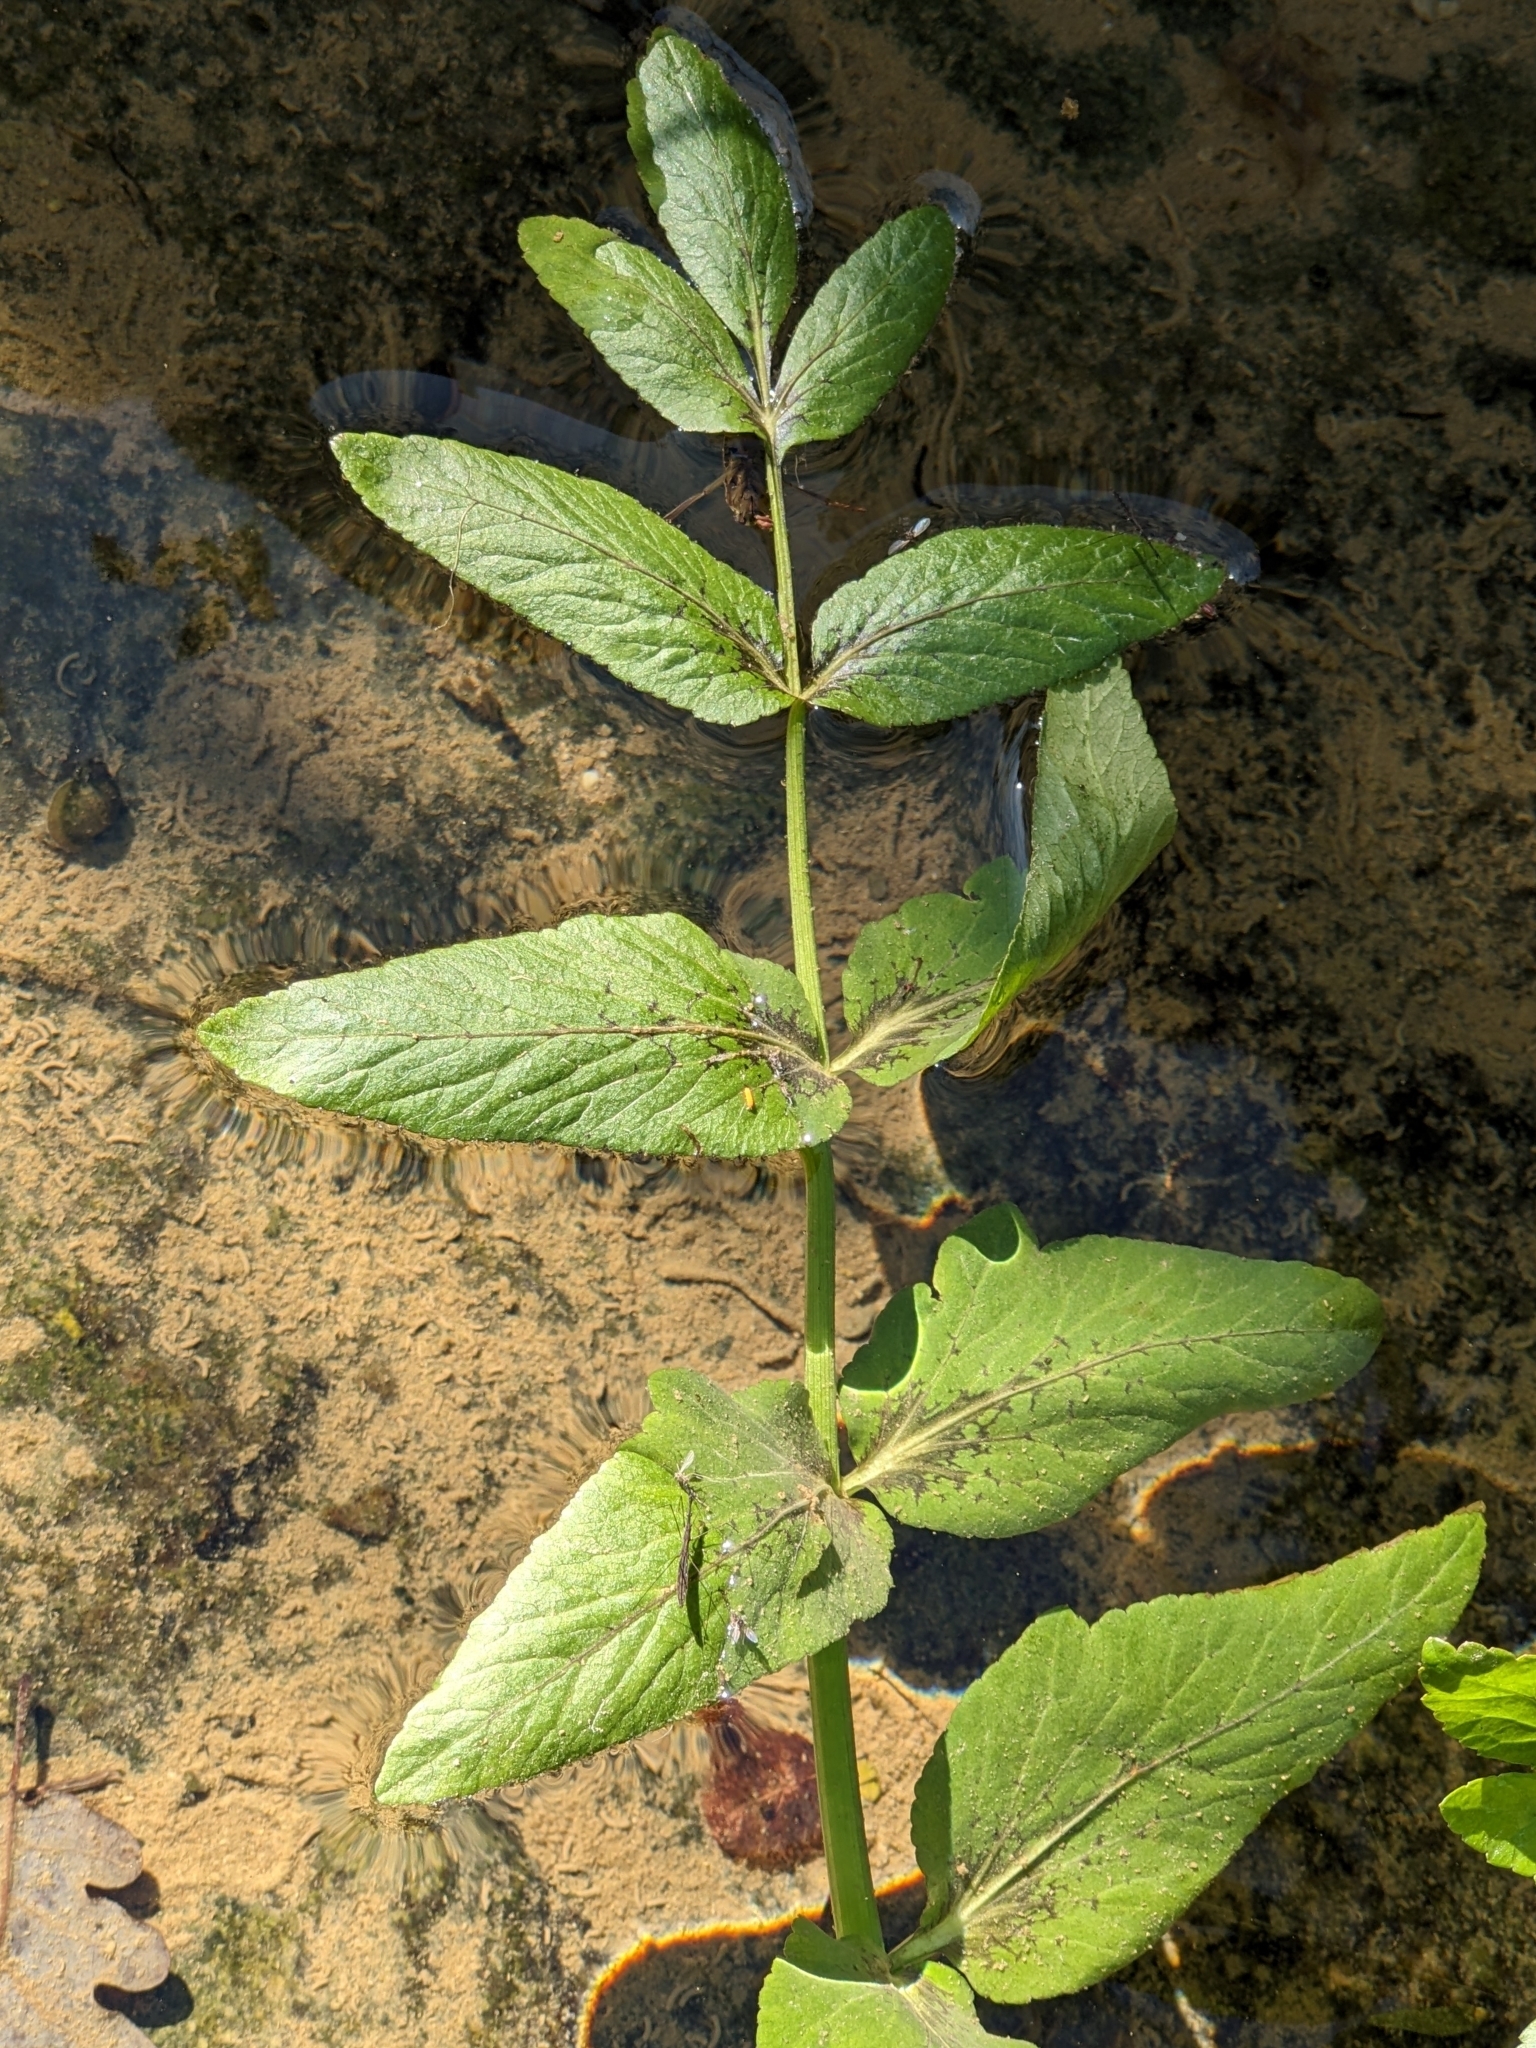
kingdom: Plantae
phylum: Tracheophyta
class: Magnoliopsida
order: Apiales
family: Apiaceae
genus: Helosciadium
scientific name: Helosciadium nodiflorum
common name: Fool's-watercress
